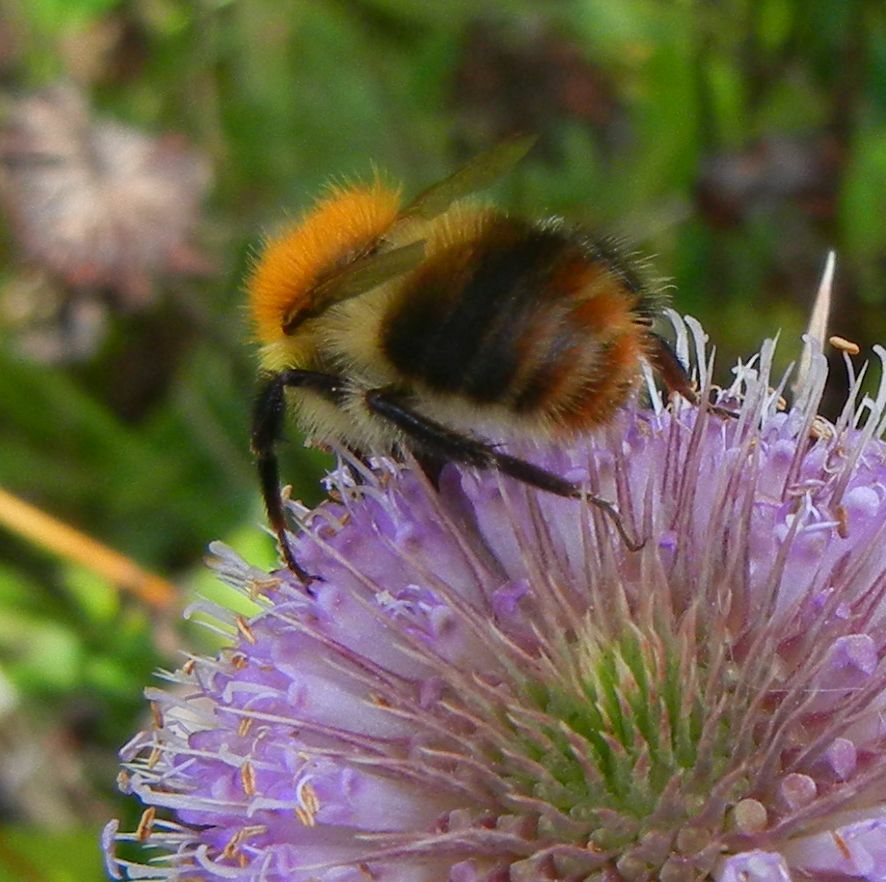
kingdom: Animalia
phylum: Arthropoda
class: Insecta
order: Hymenoptera
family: Apidae
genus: Bombus
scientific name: Bombus pascuorum
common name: Common carder bee
